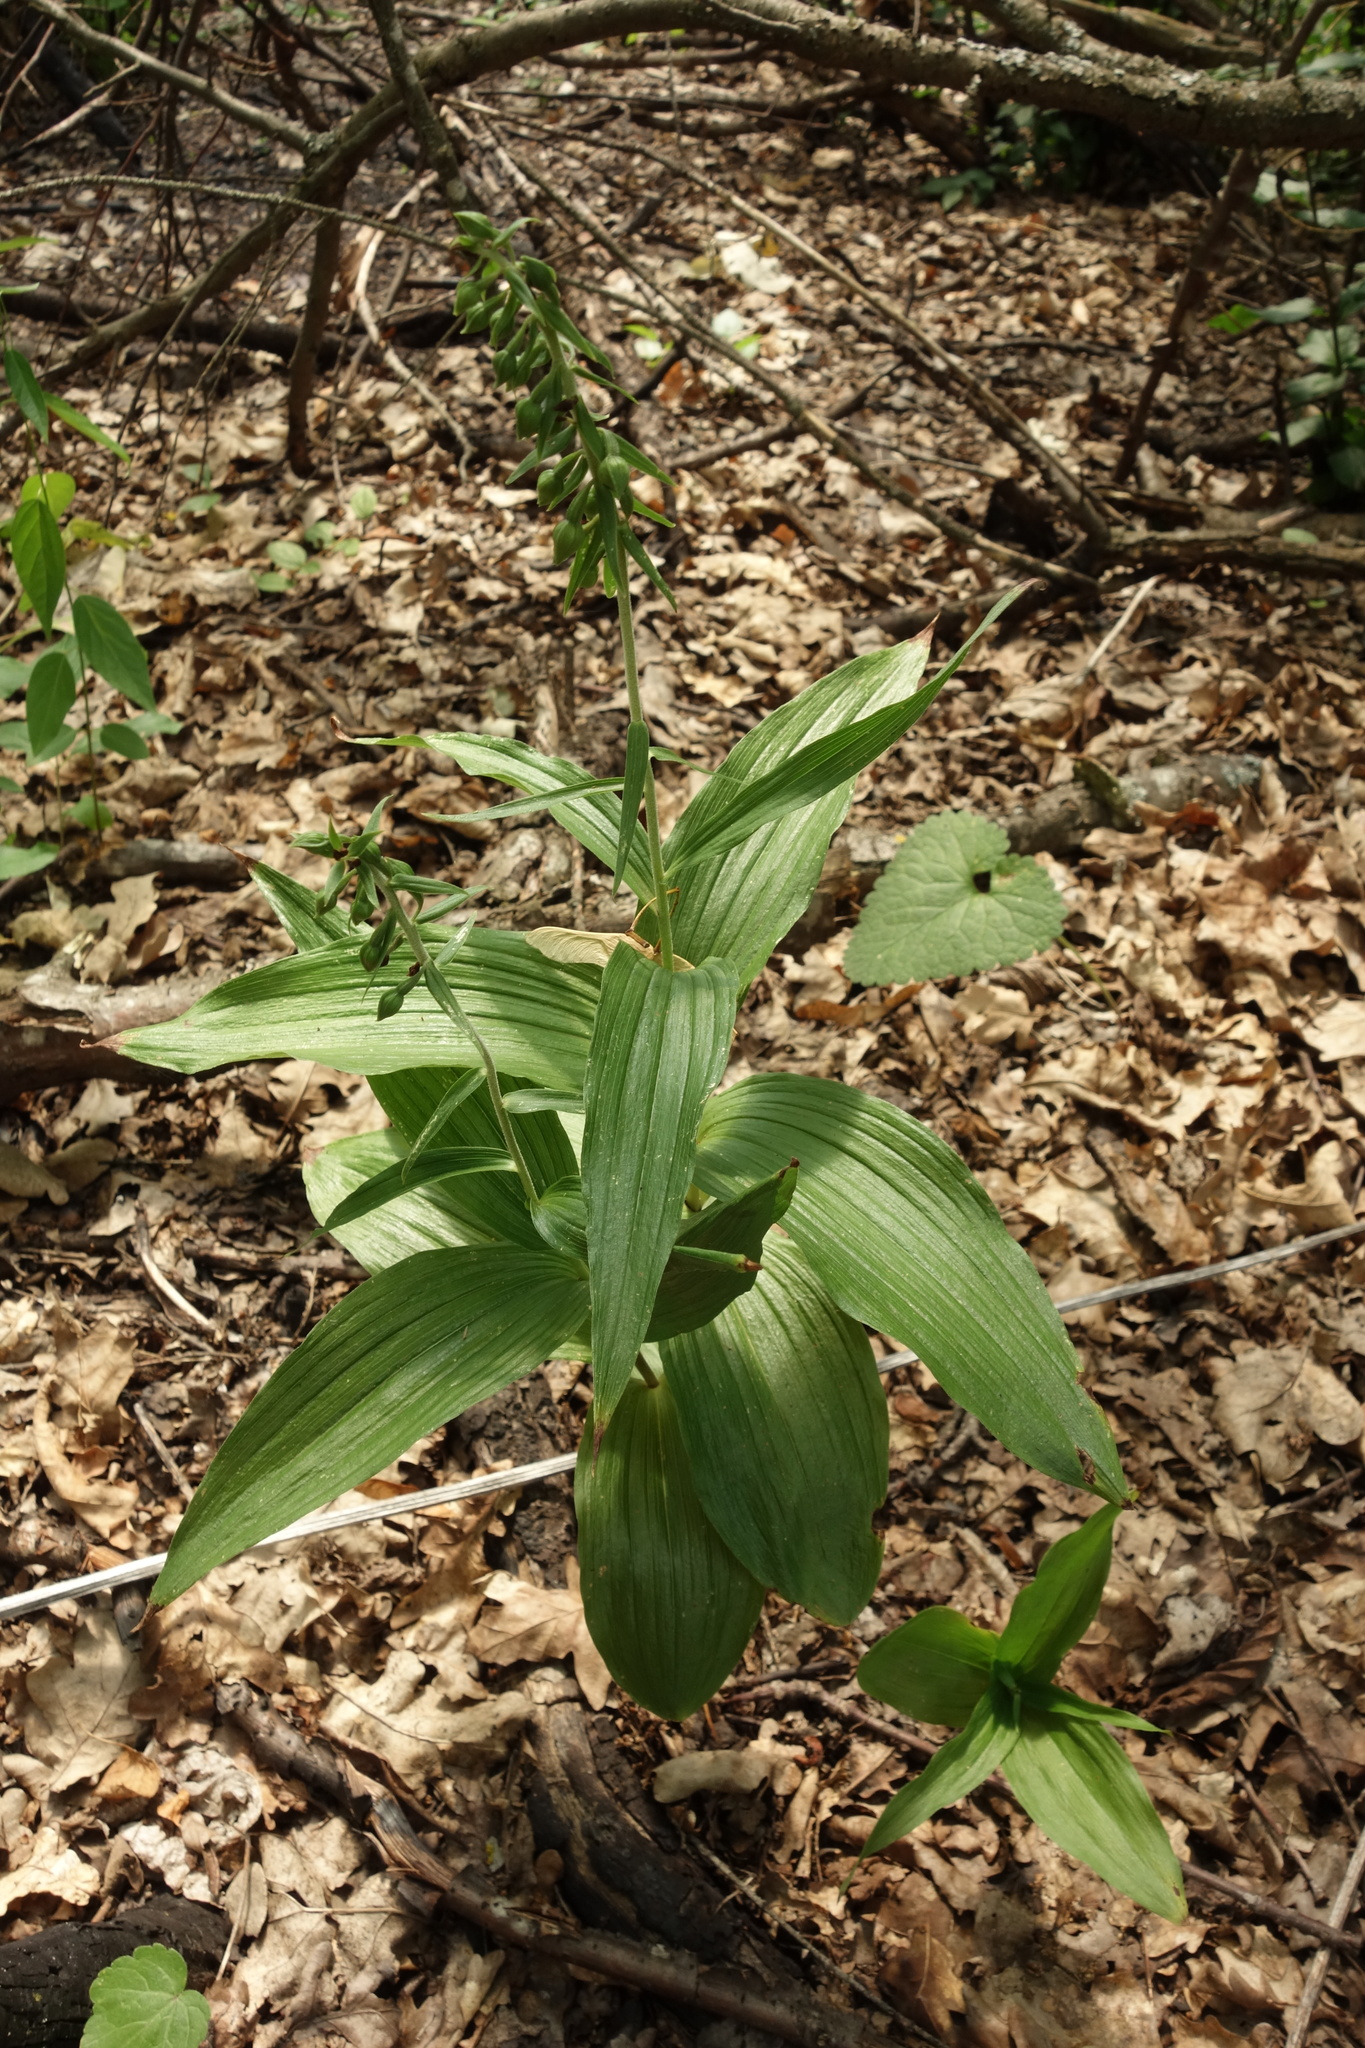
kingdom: Plantae
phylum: Tracheophyta
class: Liliopsida
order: Asparagales
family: Orchidaceae
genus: Epipactis
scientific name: Epipactis helleborine
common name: Broad-leaved helleborine
